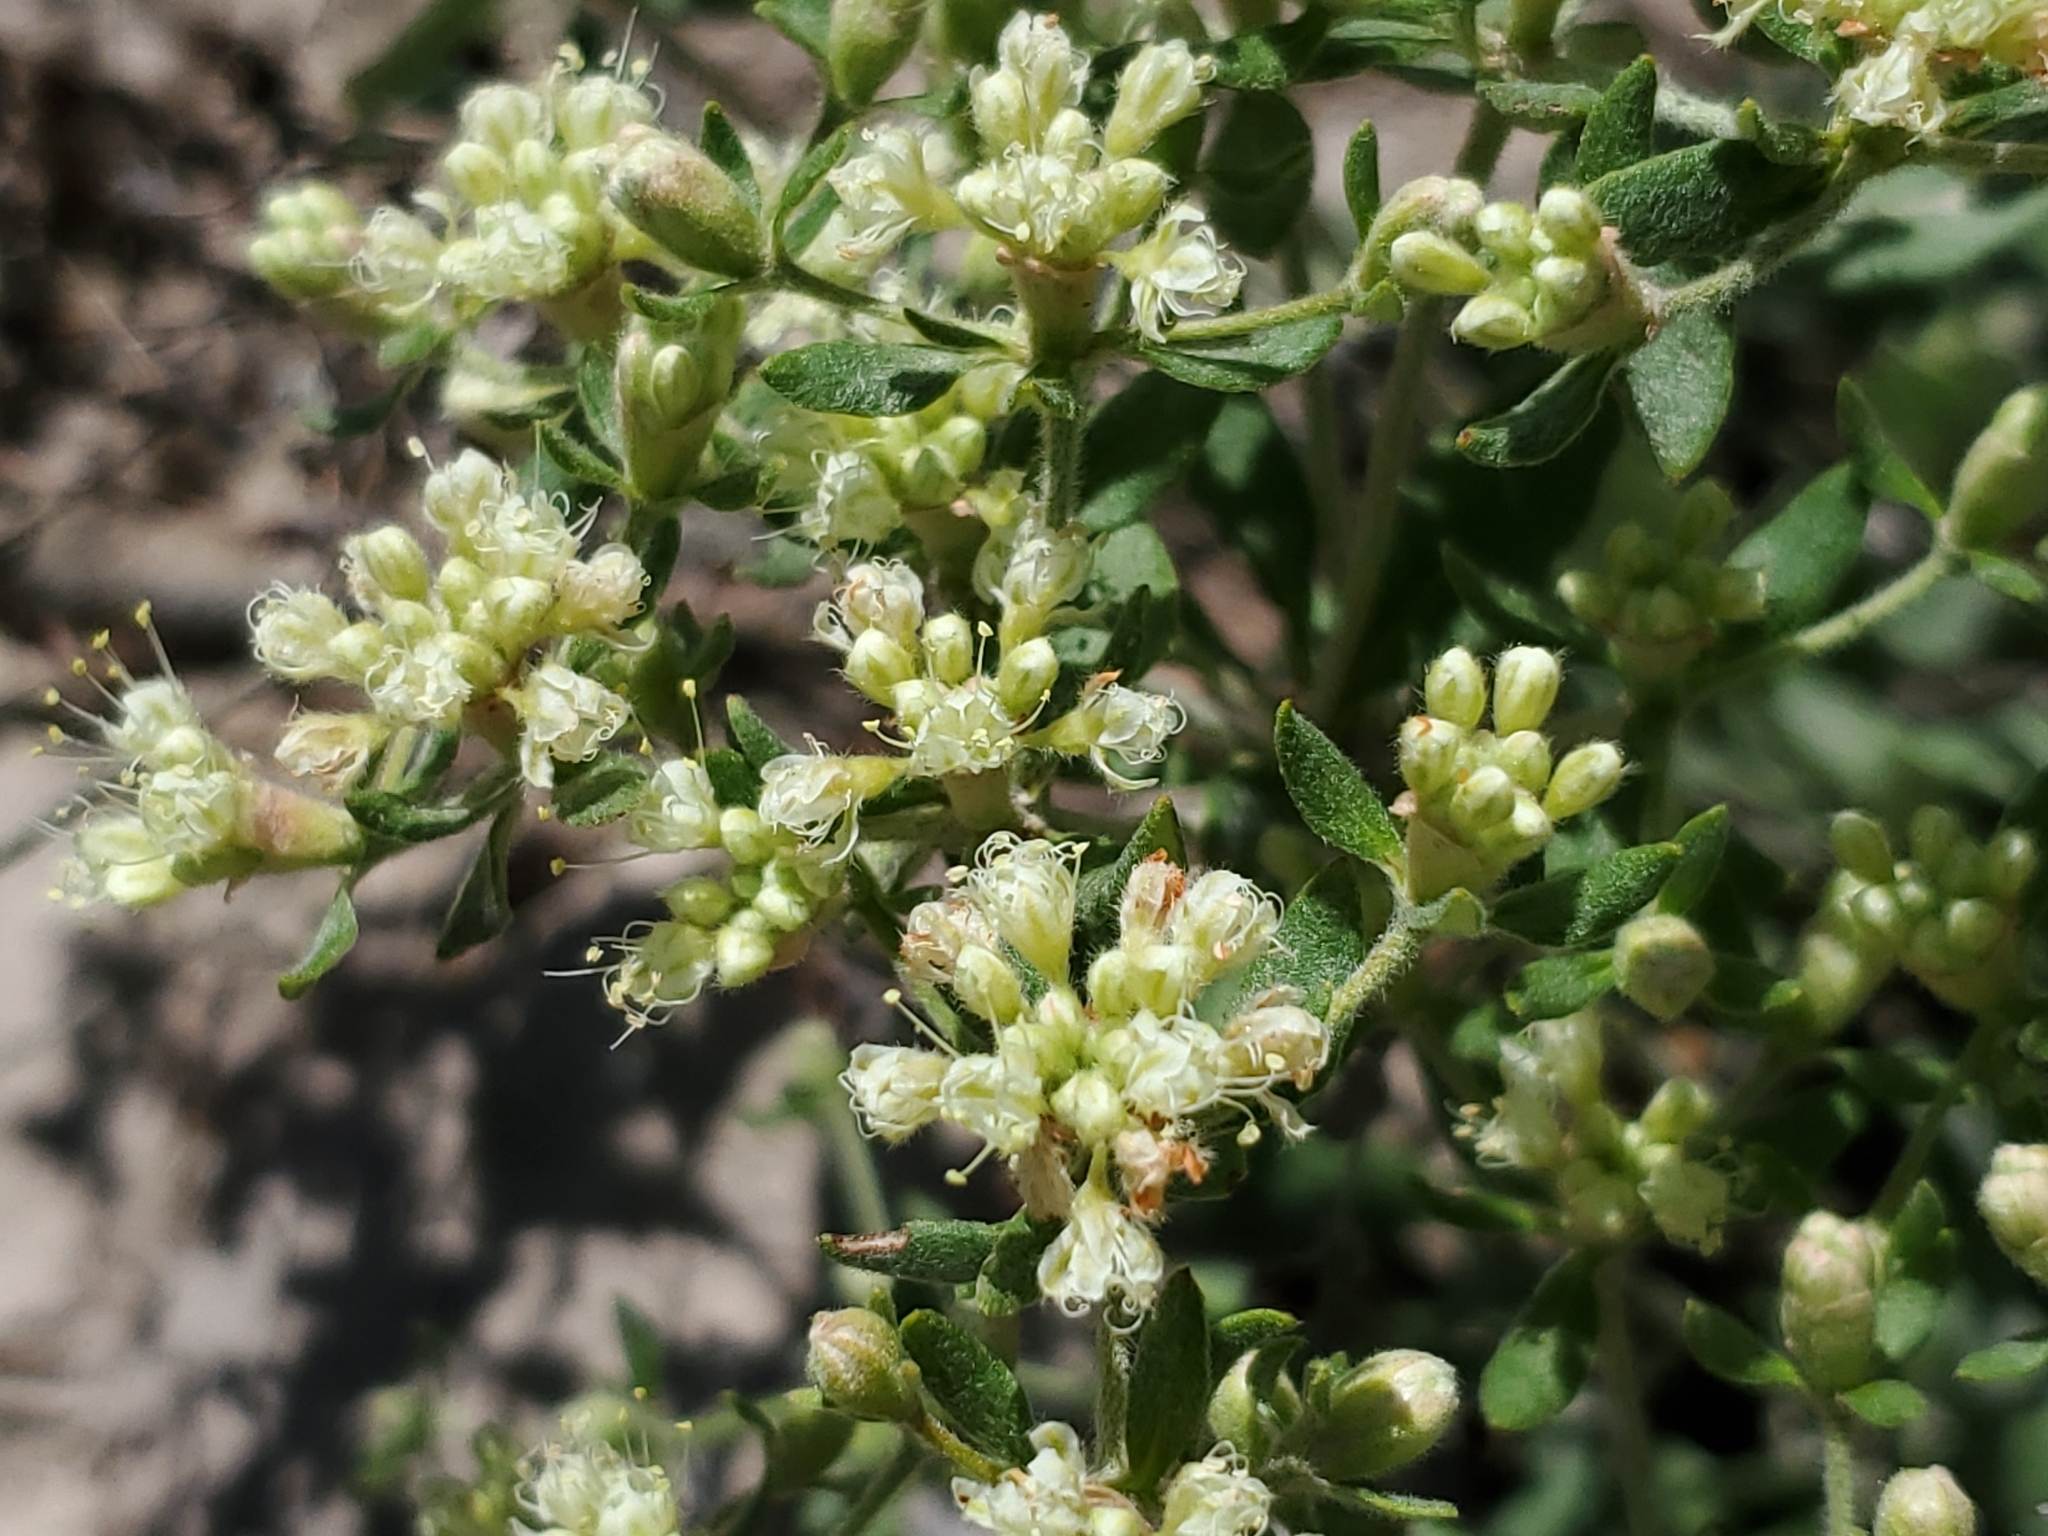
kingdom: Plantae
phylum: Tracheophyta
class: Magnoliopsida
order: Caryophyllales
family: Polygonaceae
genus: Eriogonum
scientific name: Eriogonum jamesii
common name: Antelope-sage
